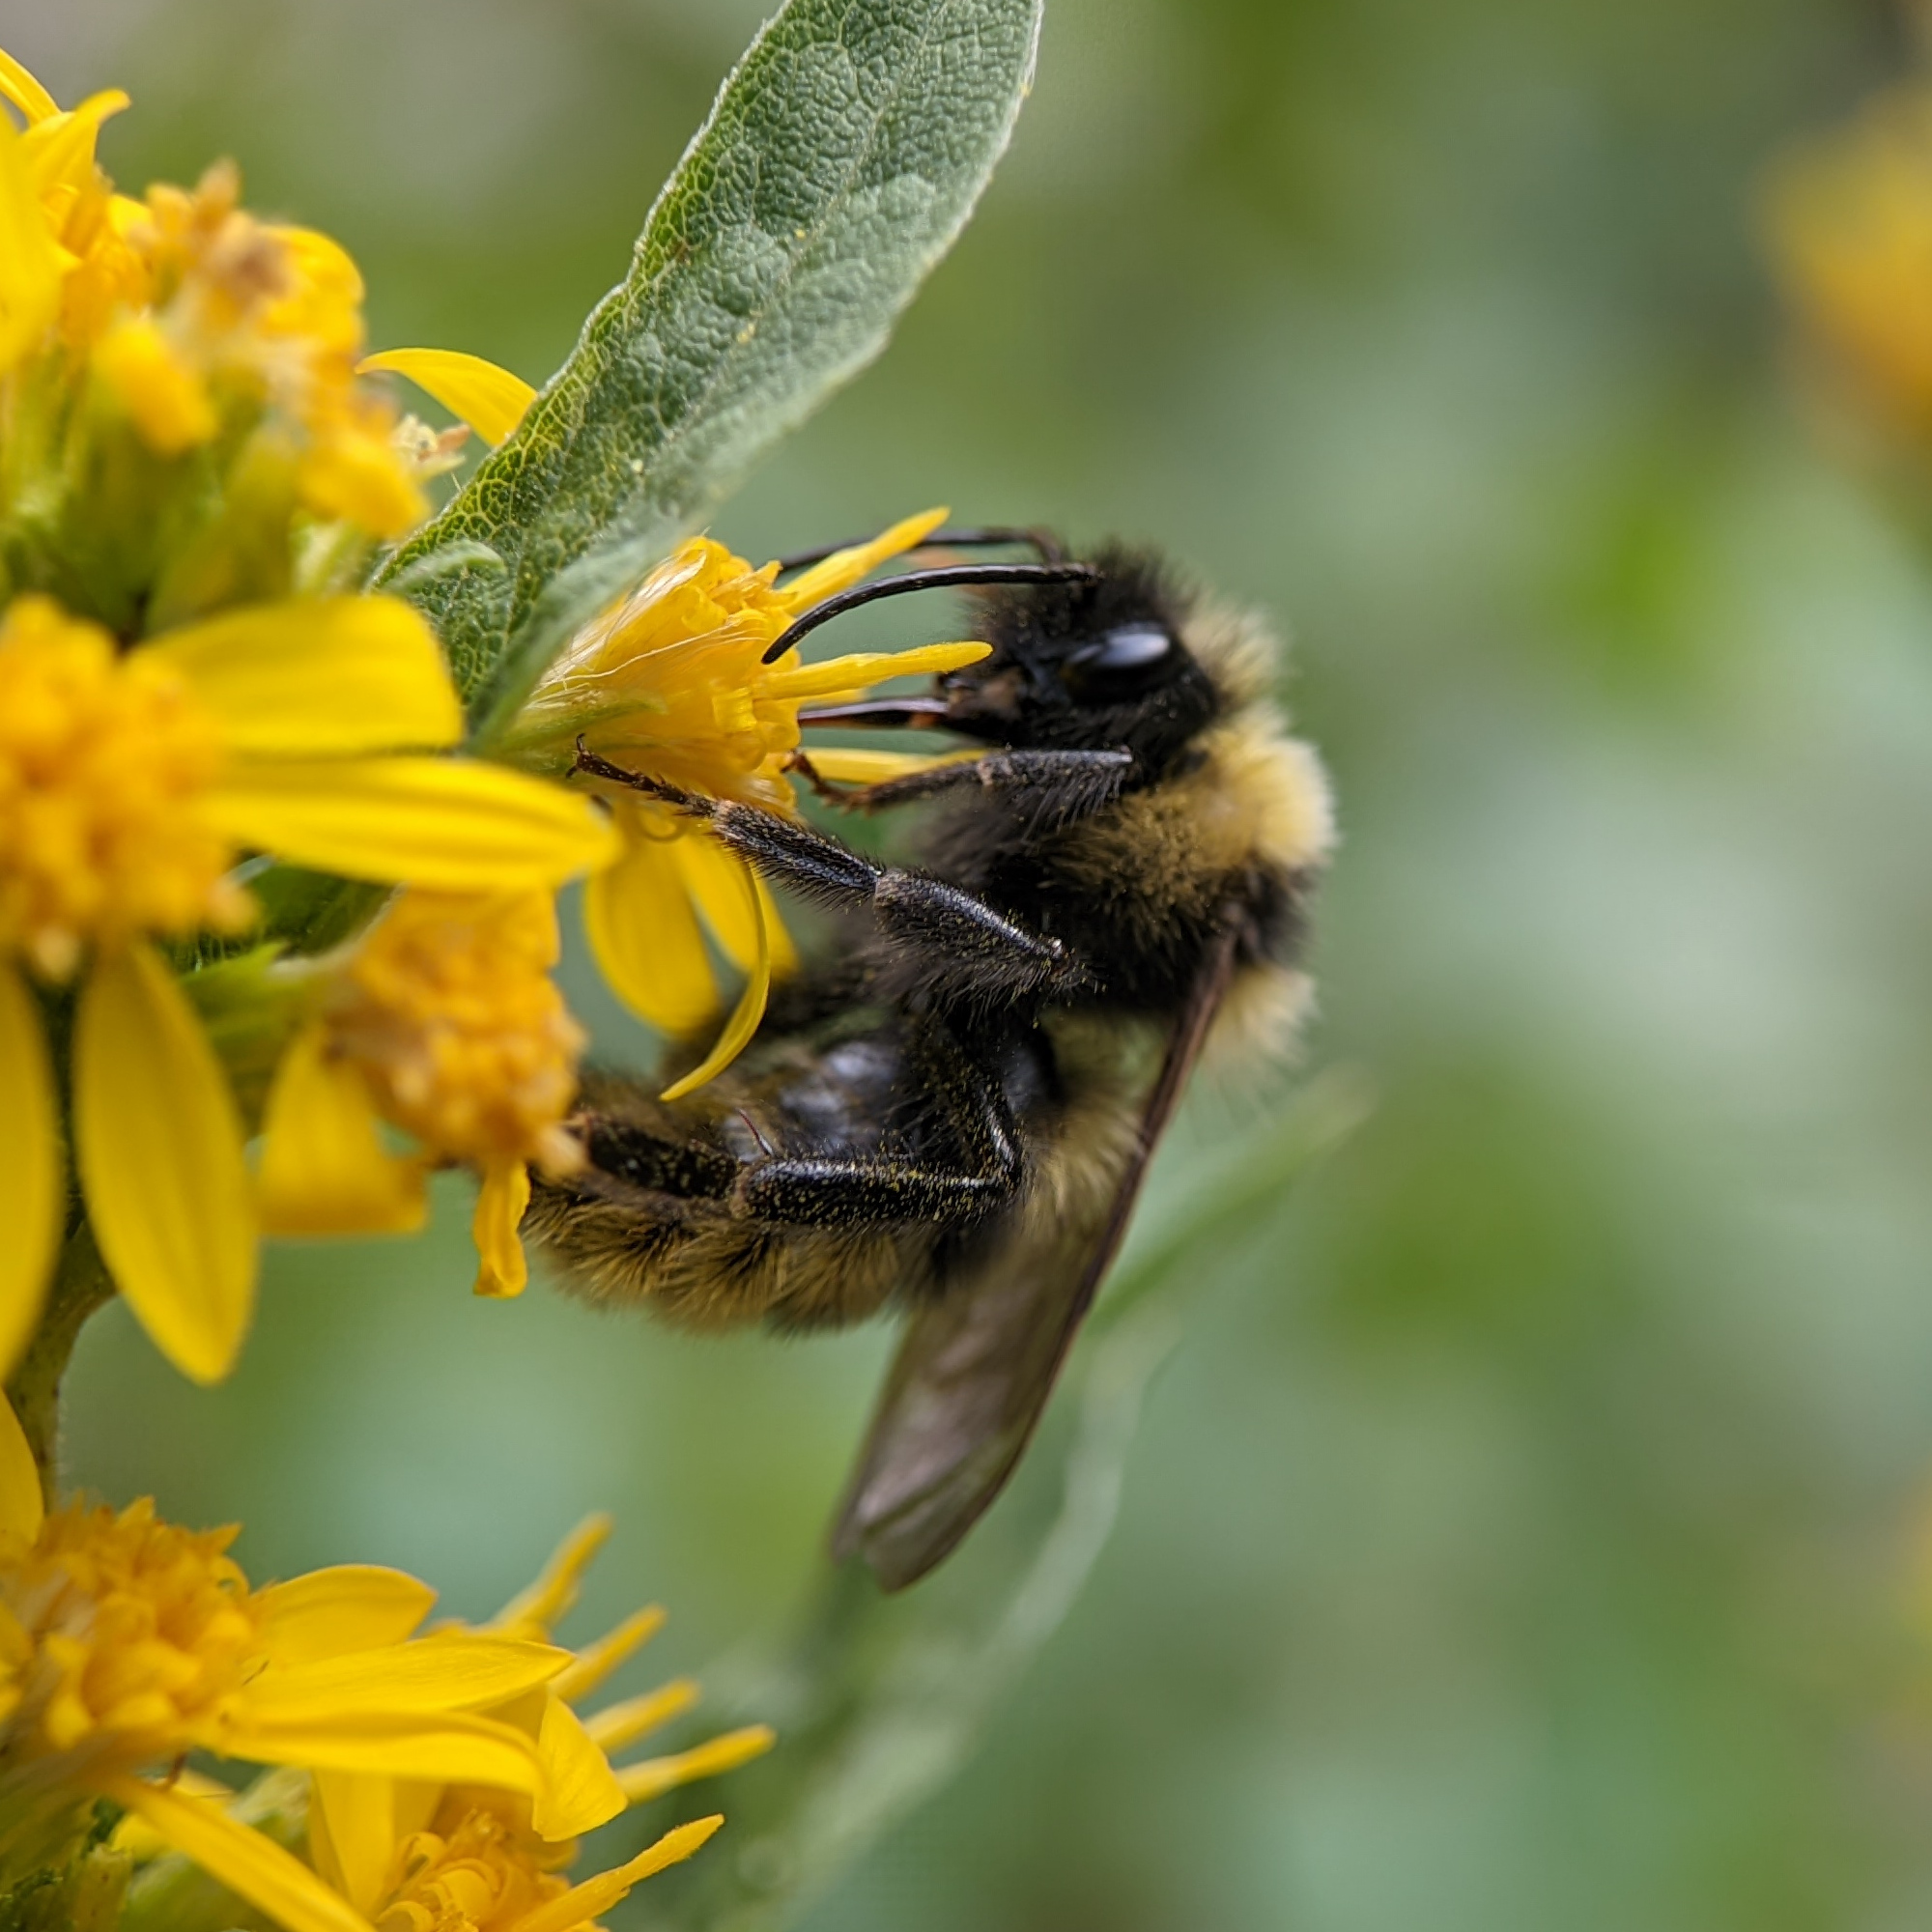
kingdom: Animalia
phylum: Arthropoda
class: Insecta
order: Hymenoptera
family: Apidae
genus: Bombus
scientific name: Bombus campestris
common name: Field cuckoo-bee
